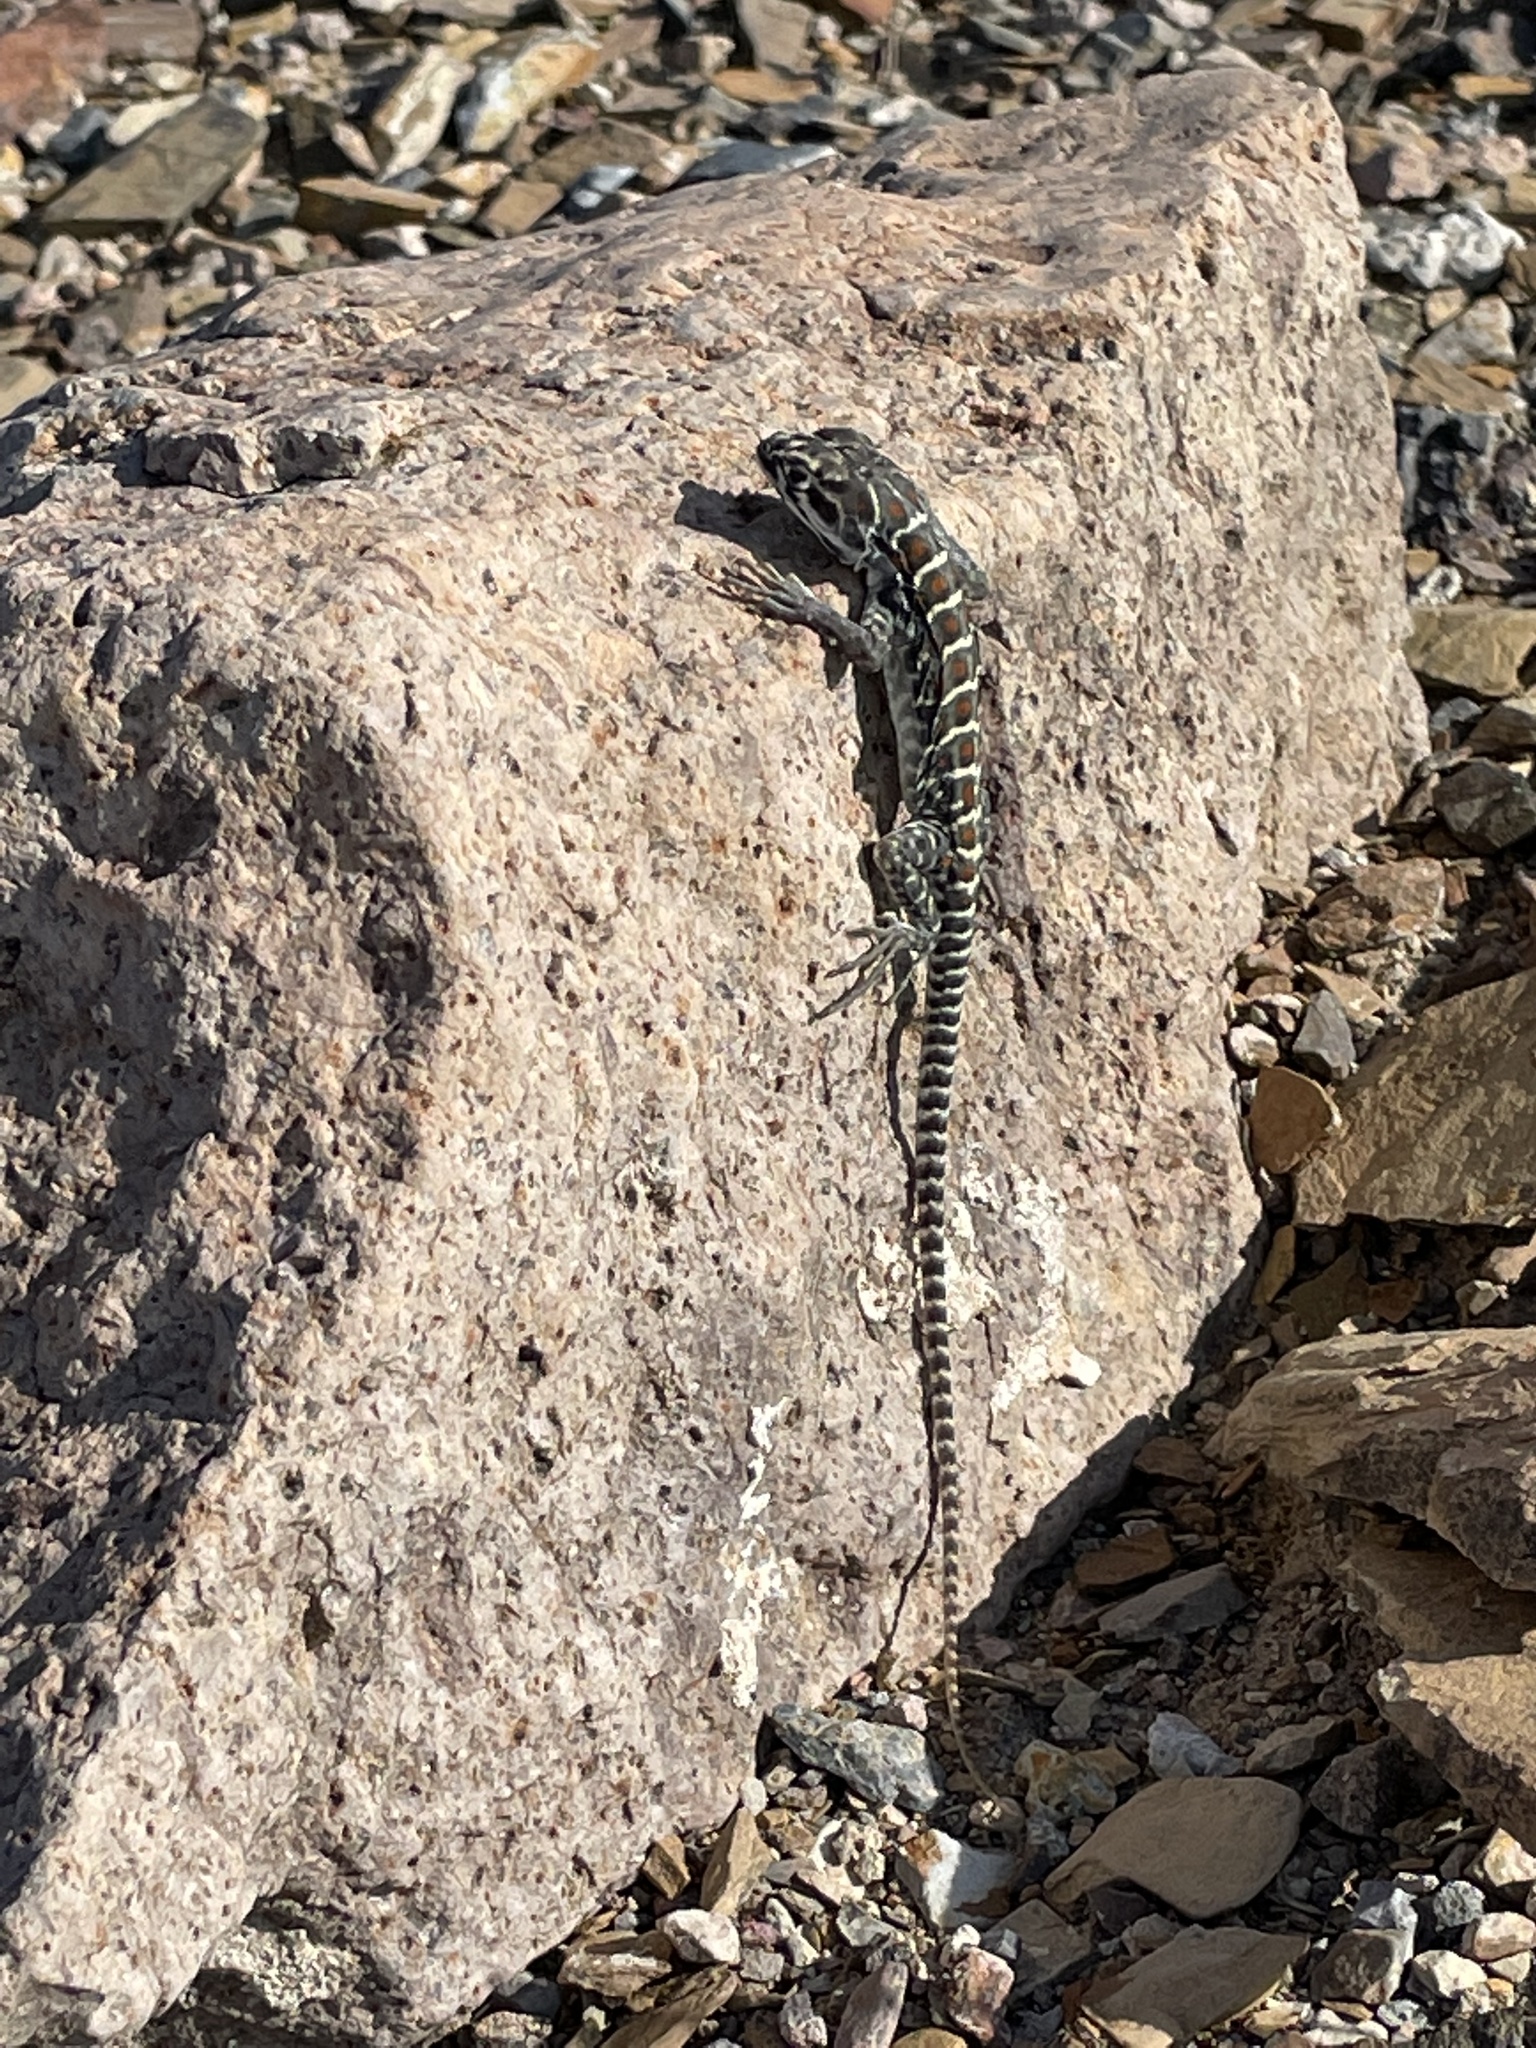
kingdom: Animalia
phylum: Chordata
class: Squamata
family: Crotaphytidae
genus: Gambelia
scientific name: Gambelia wislizenii
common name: Longnose leopard lizard
